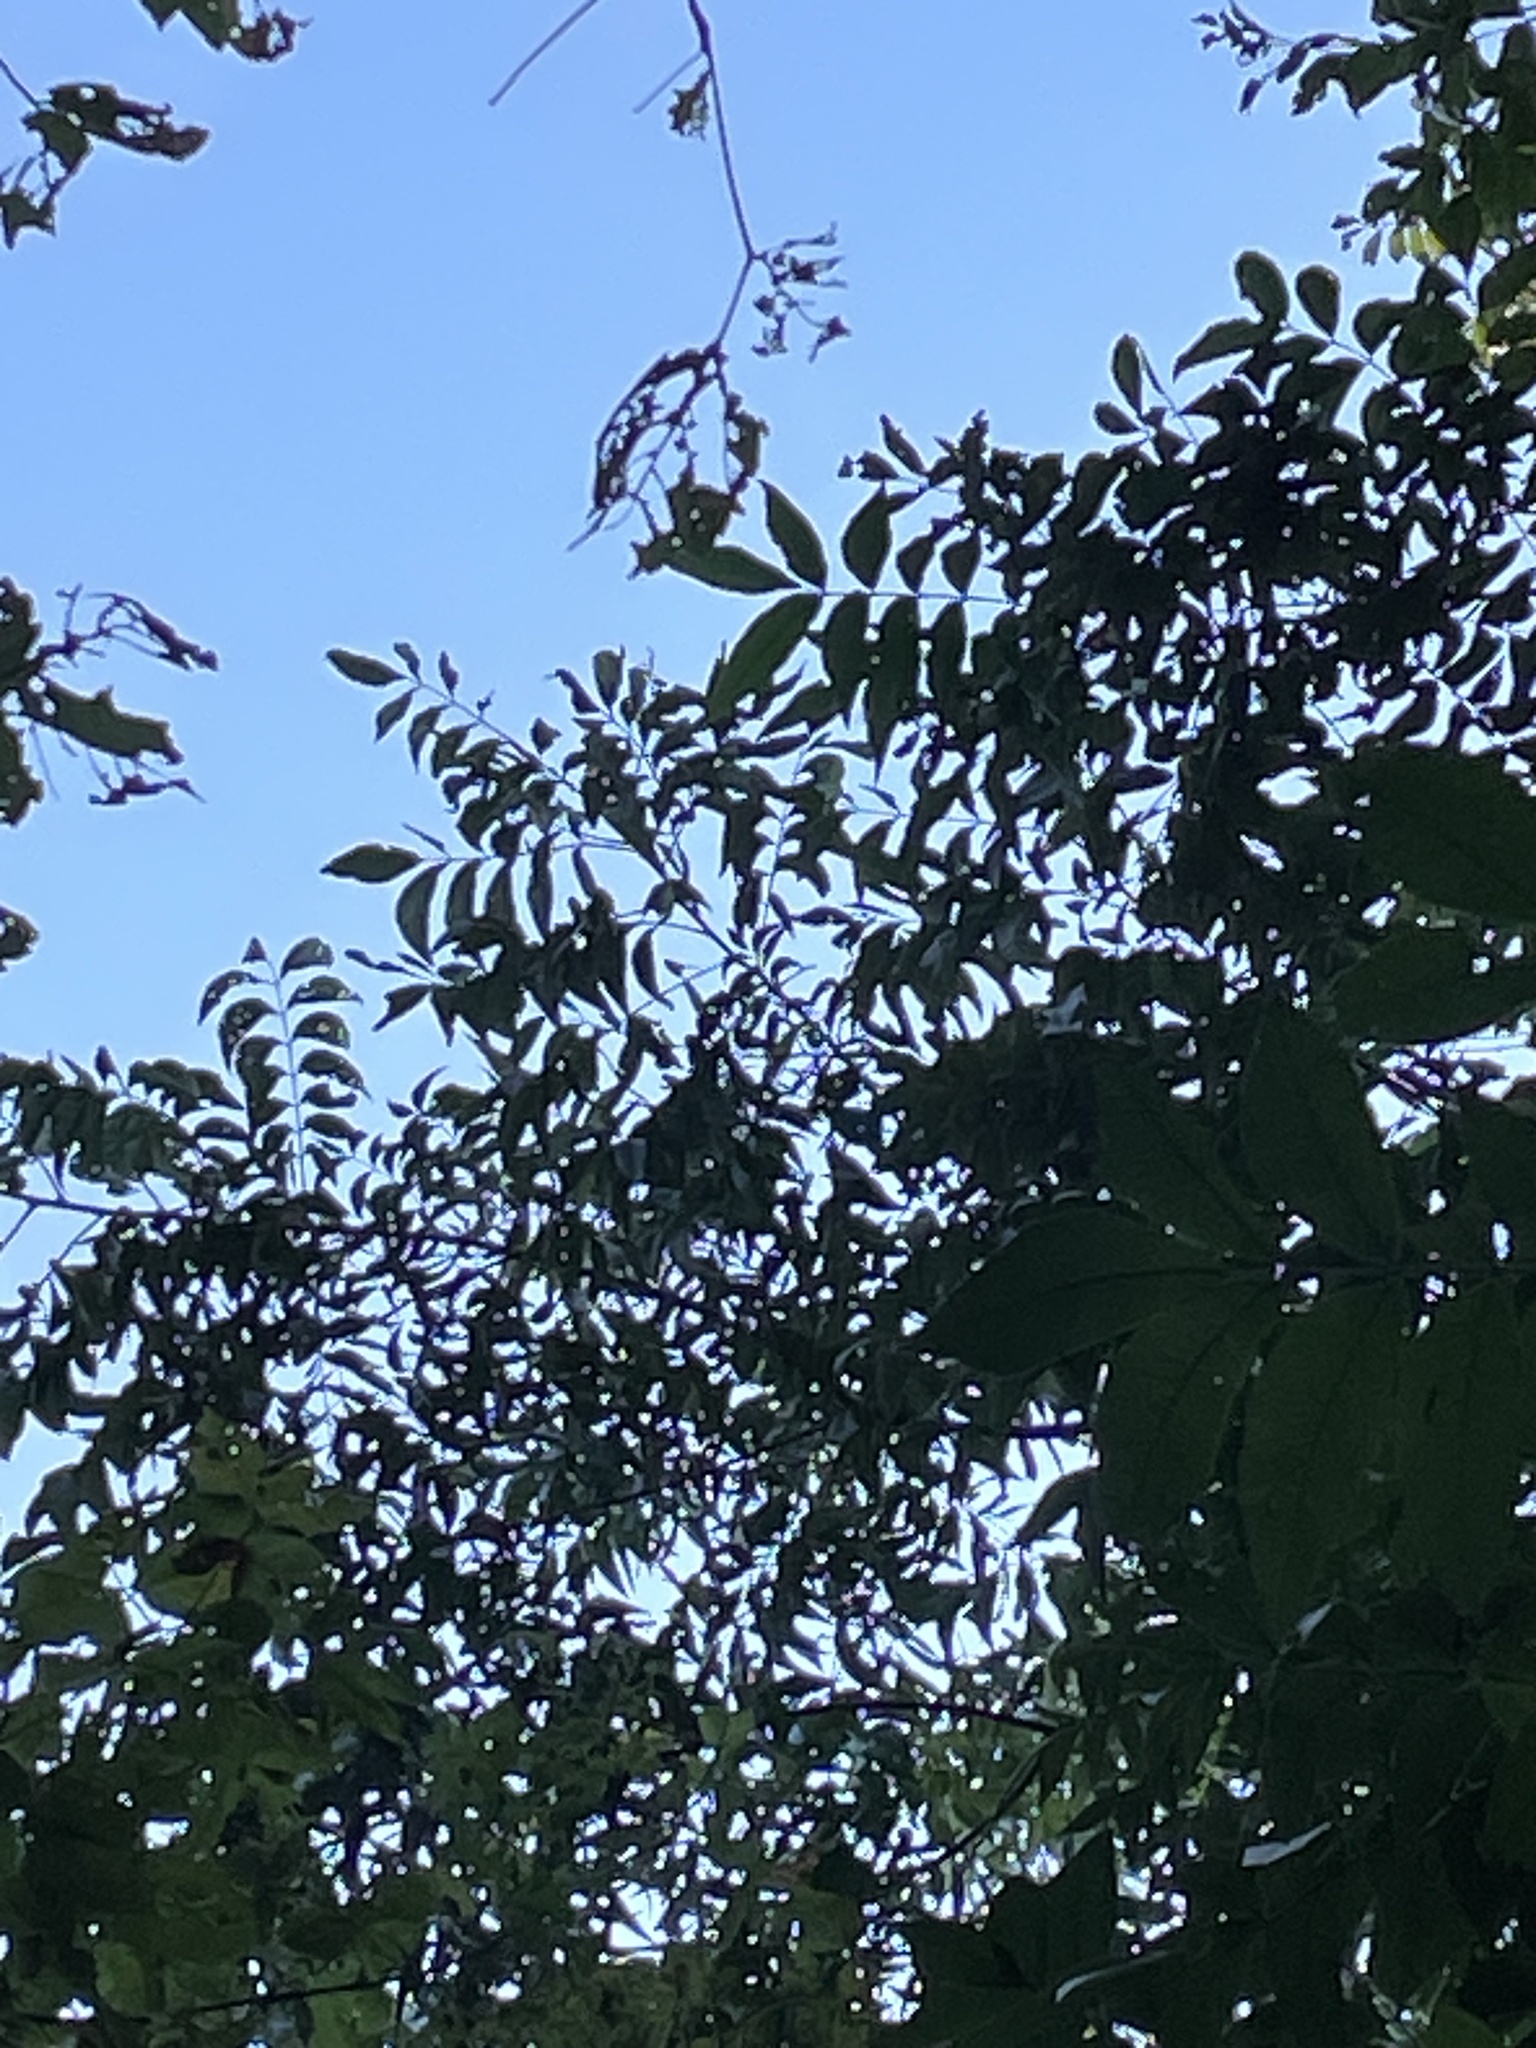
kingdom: Plantae
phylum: Tracheophyta
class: Magnoliopsida
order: Fagales
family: Juglandaceae
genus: Carya
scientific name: Carya illinoinensis
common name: Pecan
